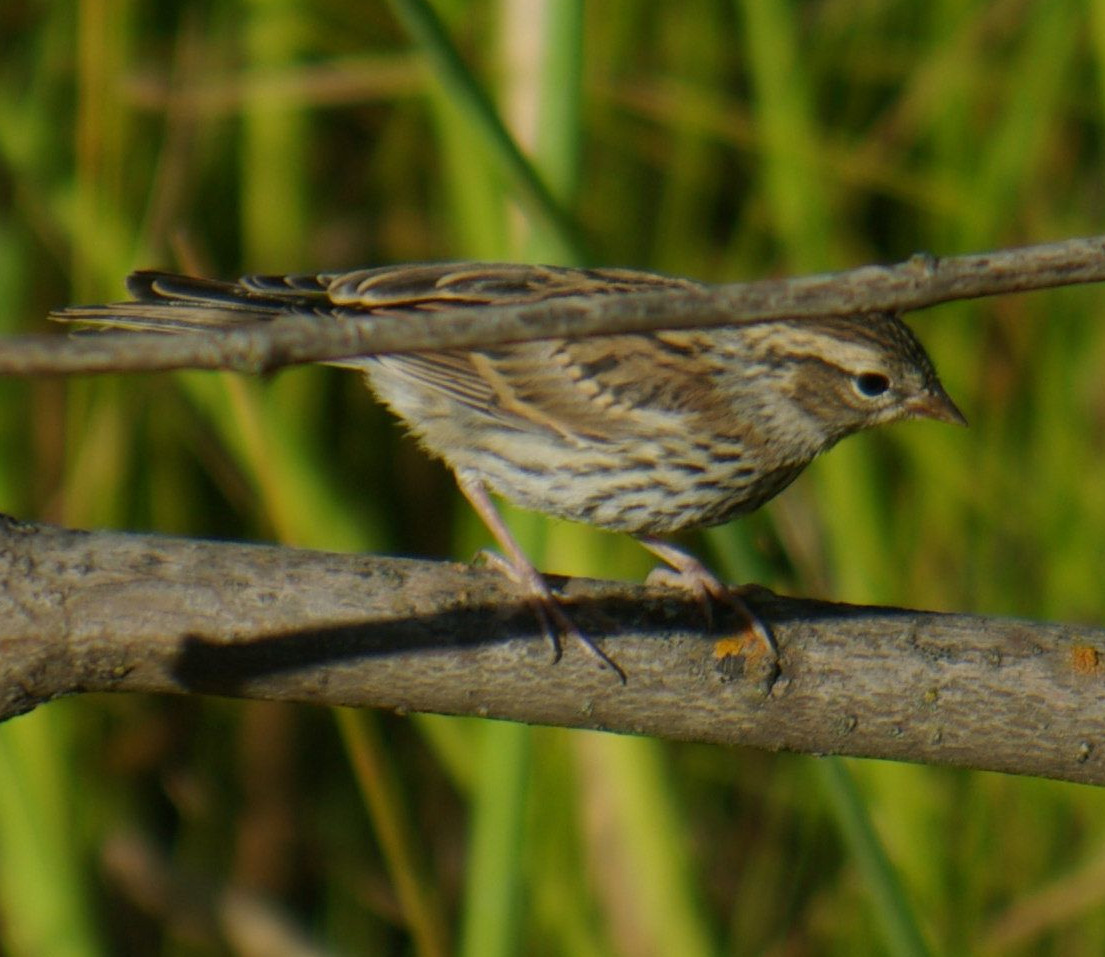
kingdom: Animalia
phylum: Chordata
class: Aves
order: Passeriformes
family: Passerellidae
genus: Spizella
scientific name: Spizella passerina
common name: Chipping sparrow
